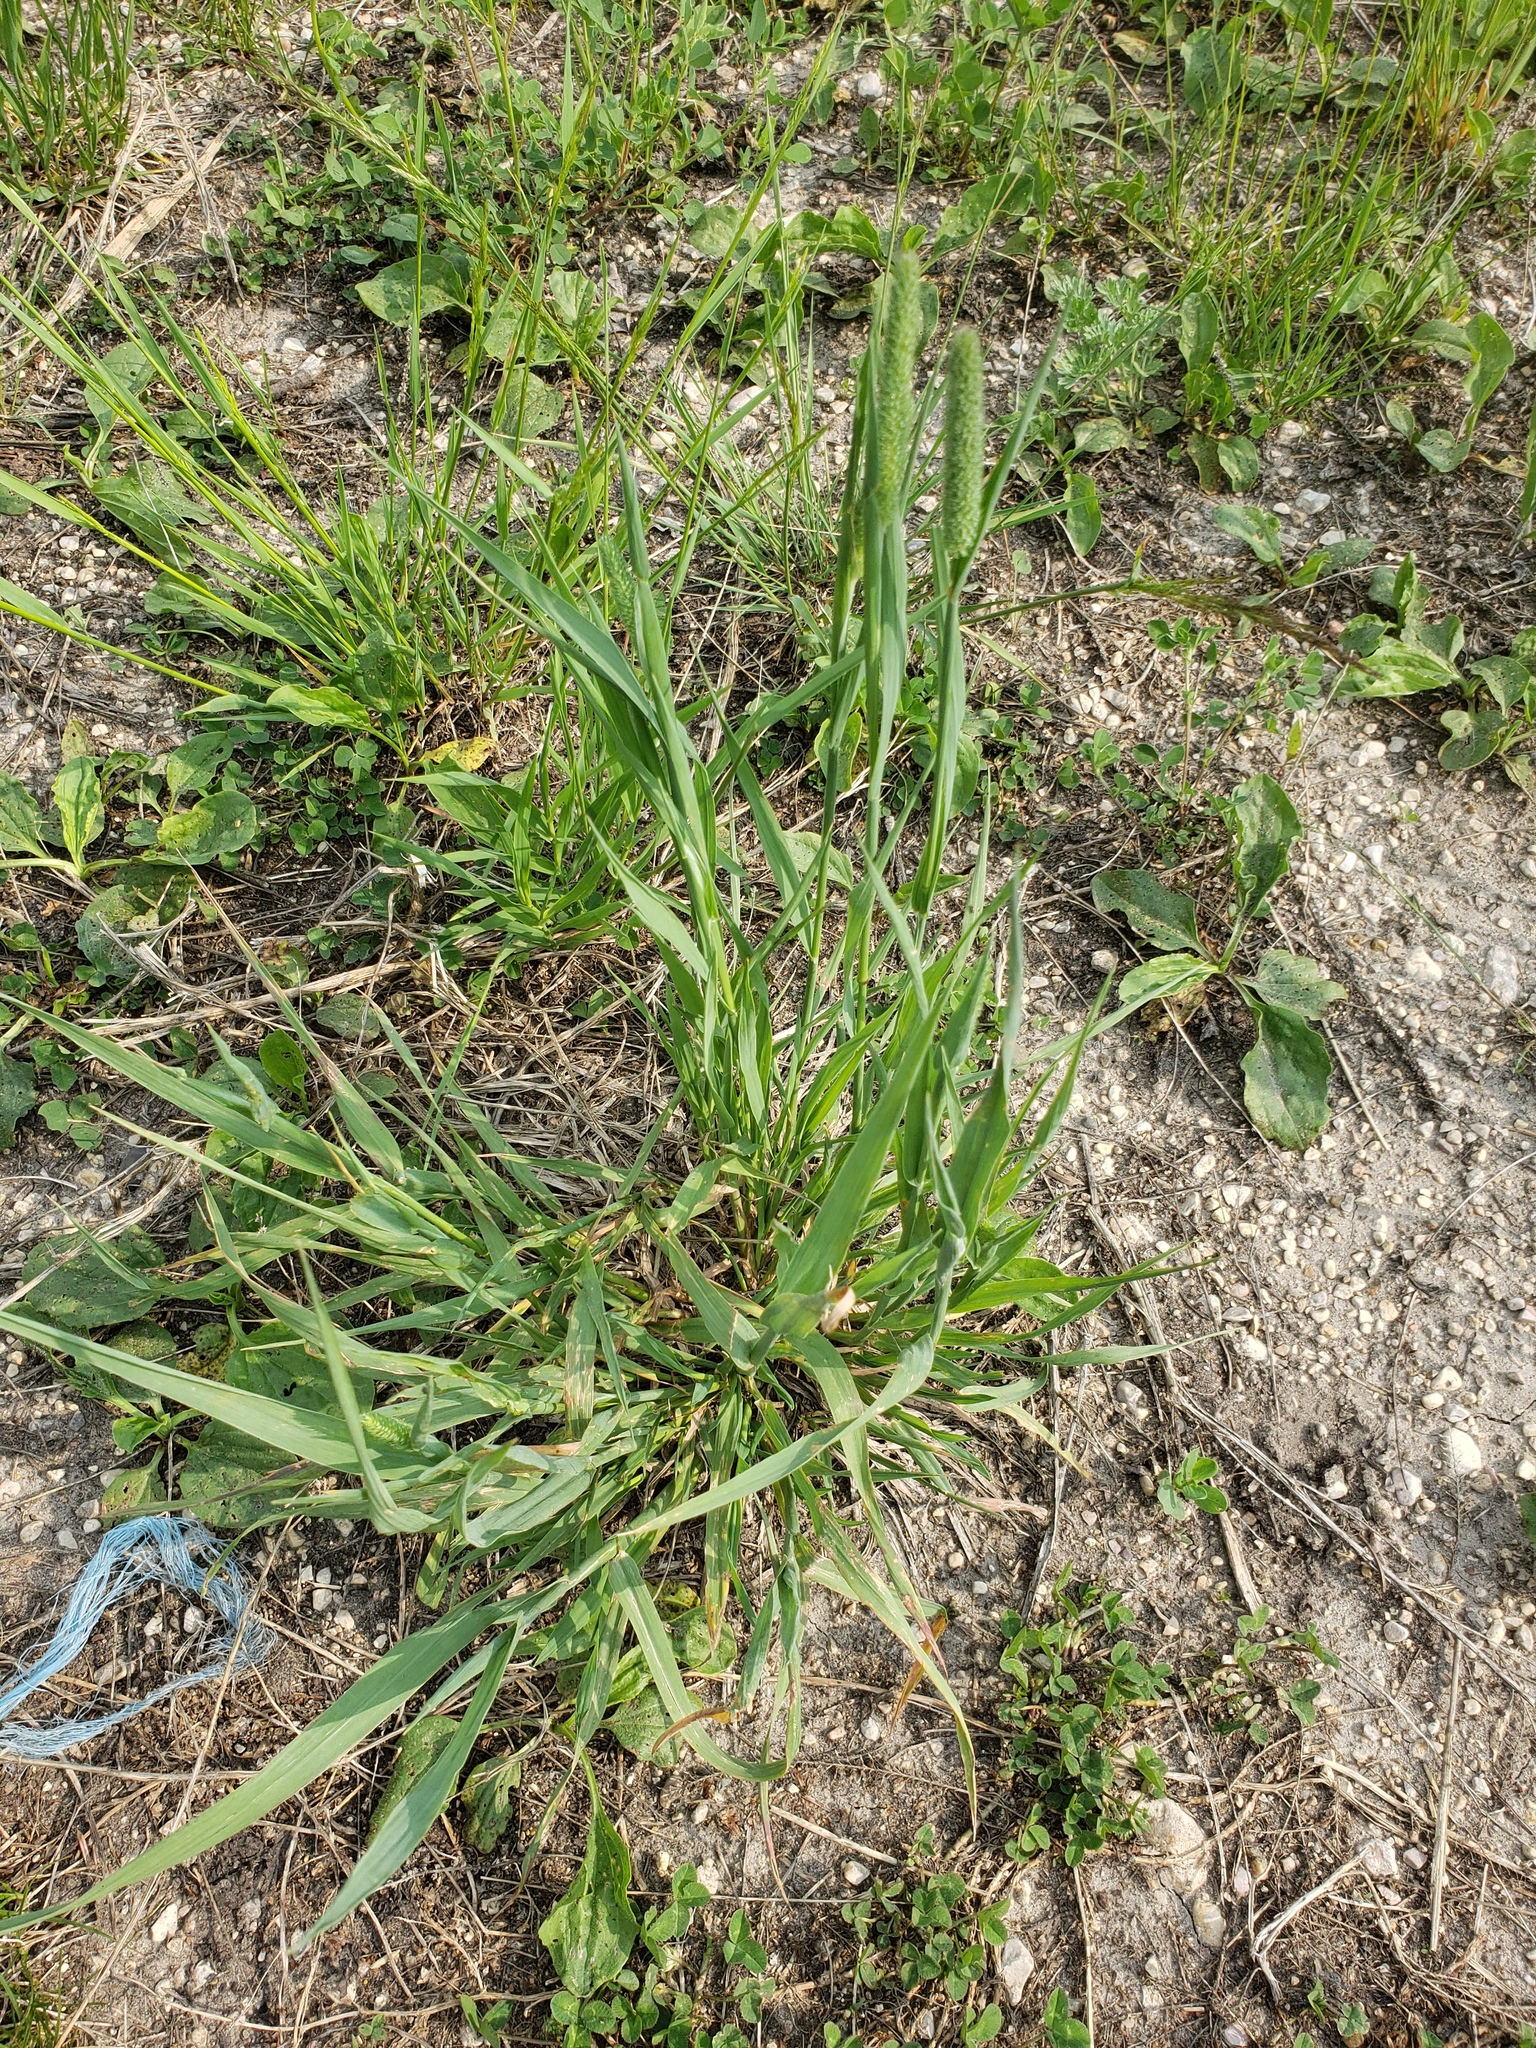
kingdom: Plantae
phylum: Tracheophyta
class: Liliopsida
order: Poales
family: Poaceae
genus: Phleum
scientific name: Phleum pratense
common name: Timothy grass
